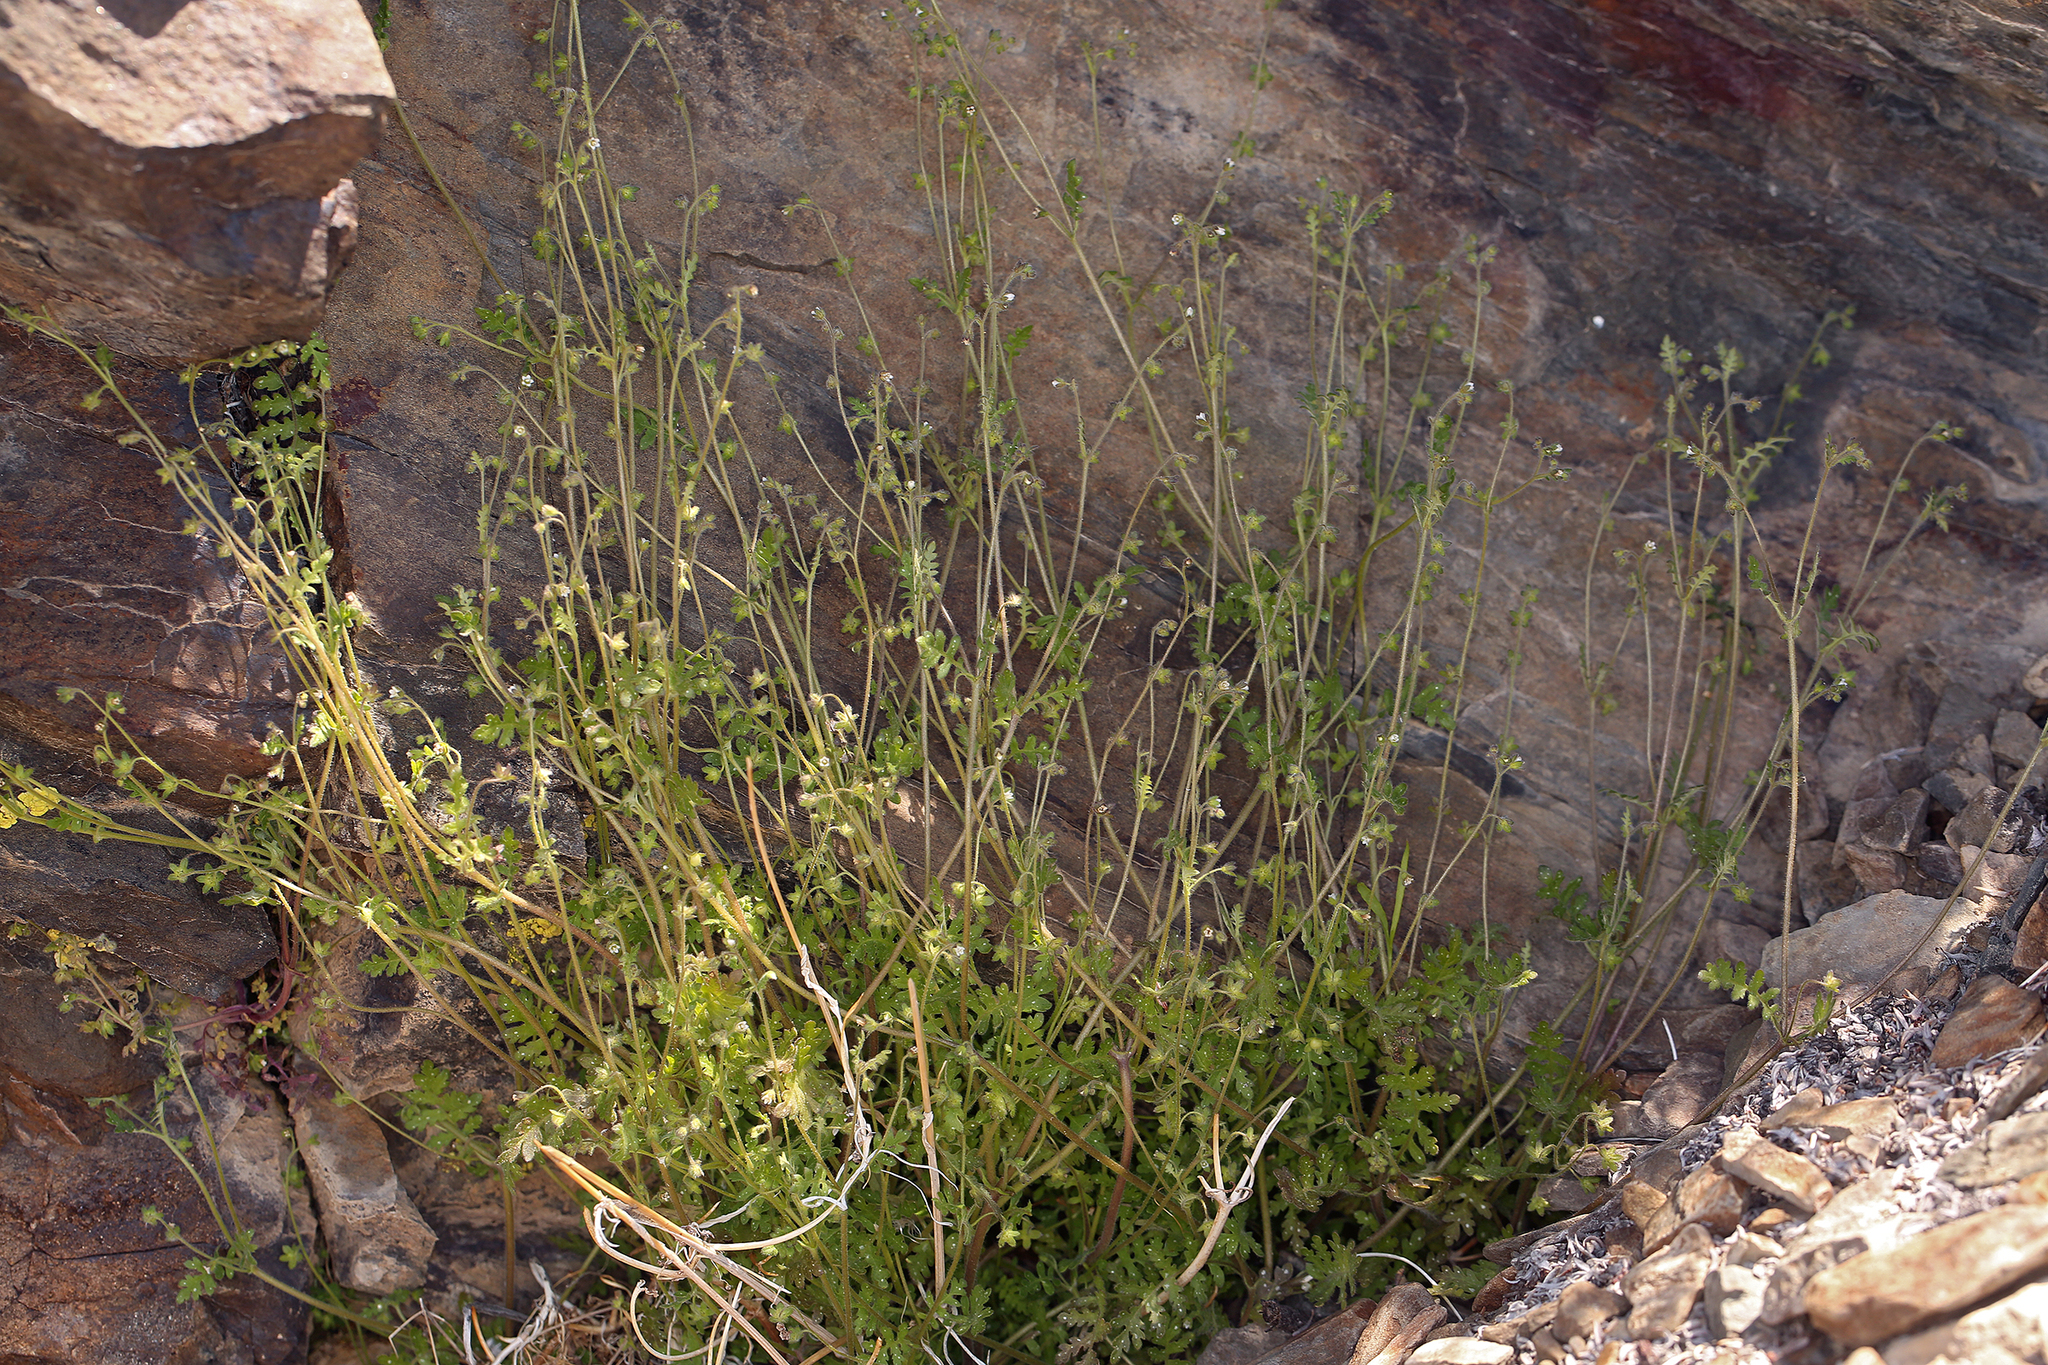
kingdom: Plantae
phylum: Tracheophyta
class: Magnoliopsida
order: Boraginales
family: Hydrophyllaceae
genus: Eucrypta
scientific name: Eucrypta chrysanthemifolia
